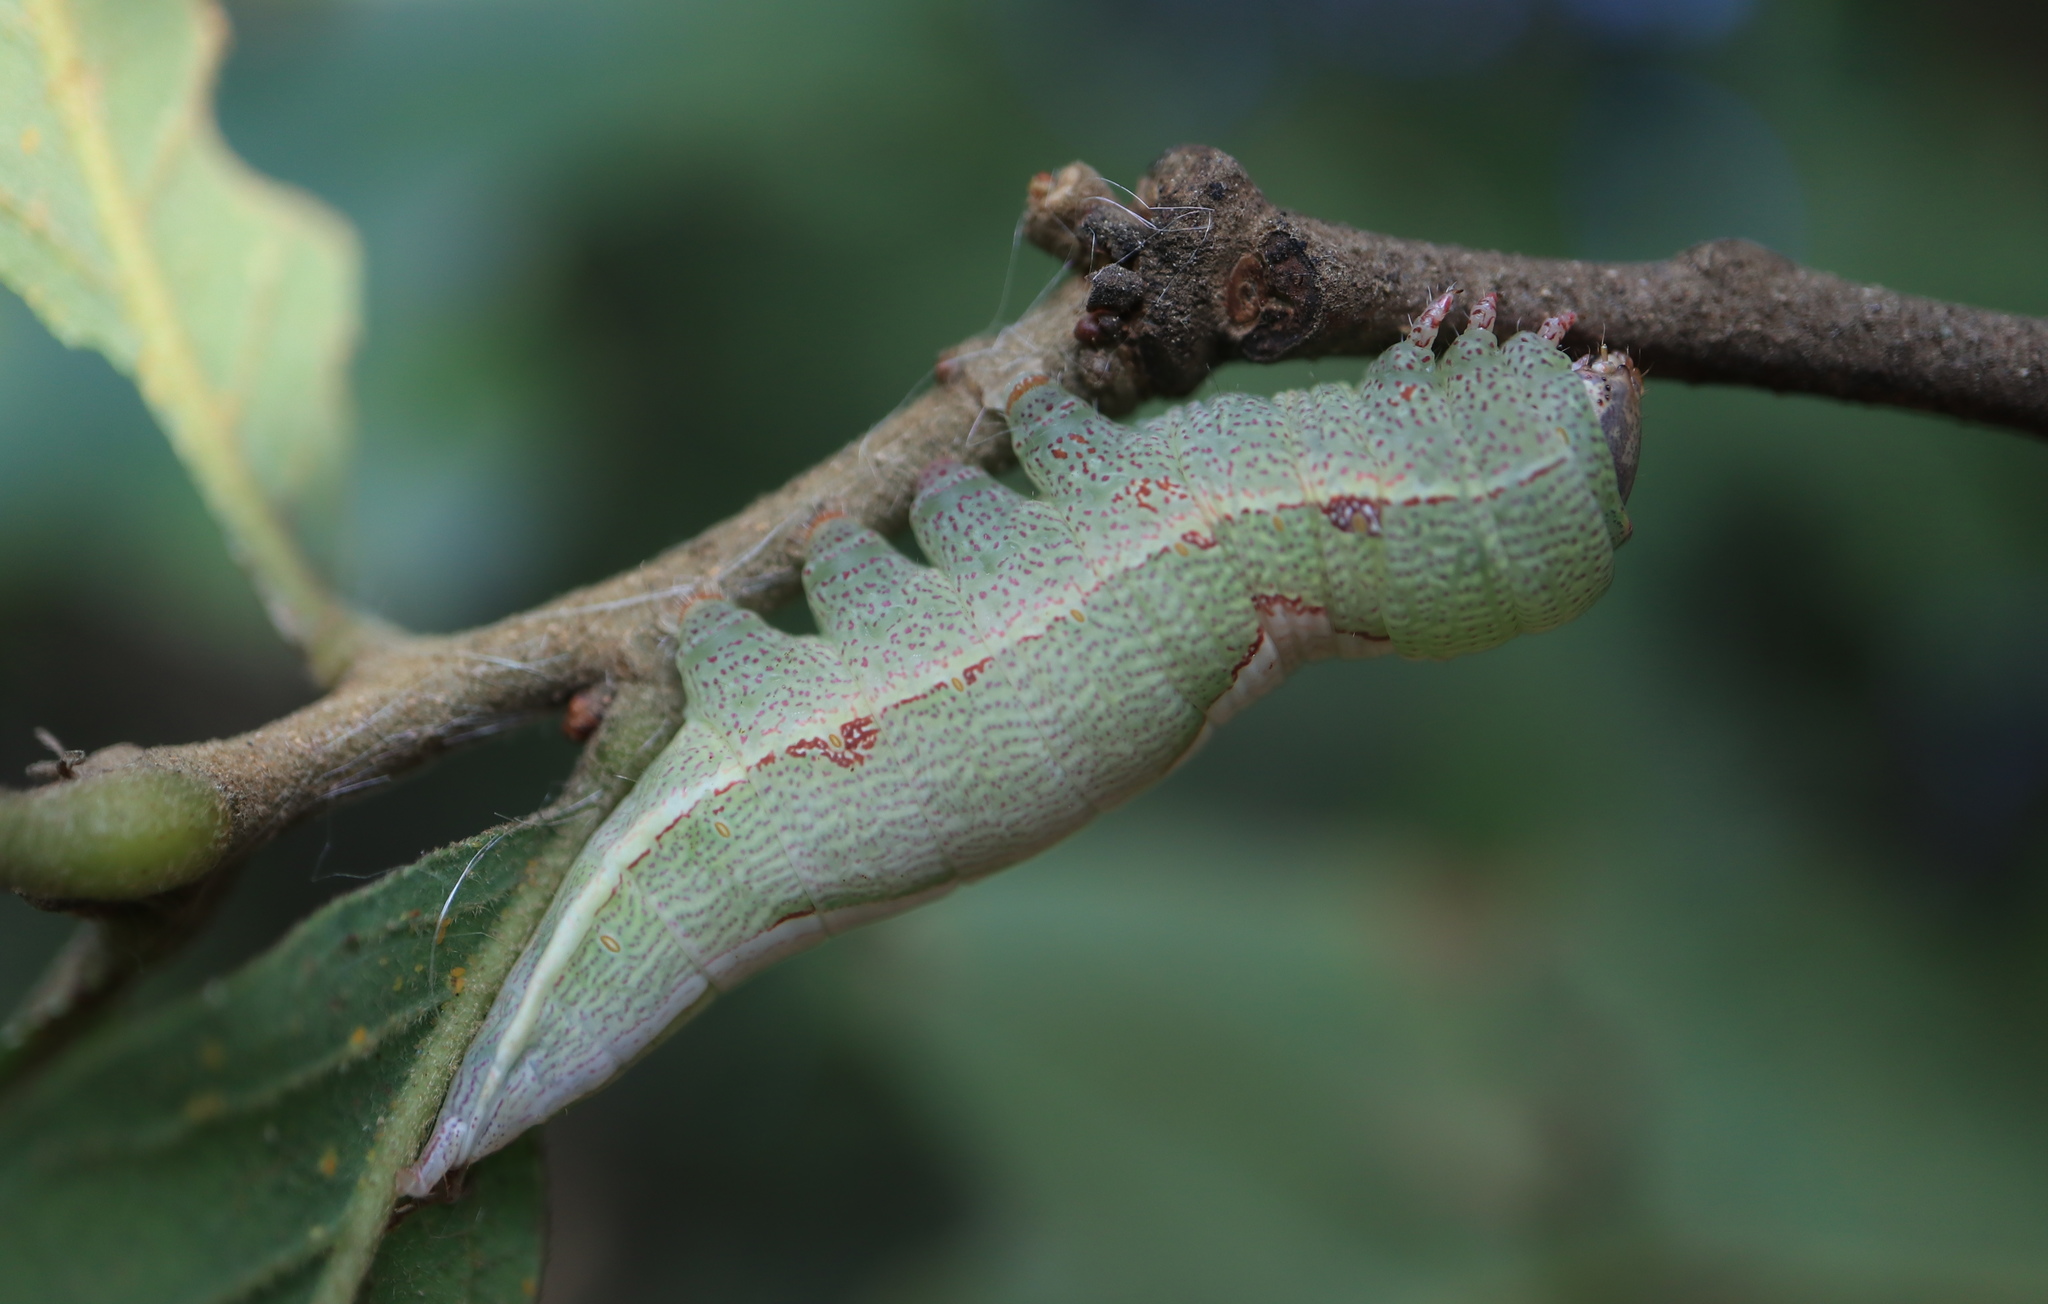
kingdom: Animalia
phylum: Arthropoda
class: Insecta
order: Lepidoptera
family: Notodontidae
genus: Heterocampa
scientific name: Heterocampa obliqua
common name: Oblique heterocampa
